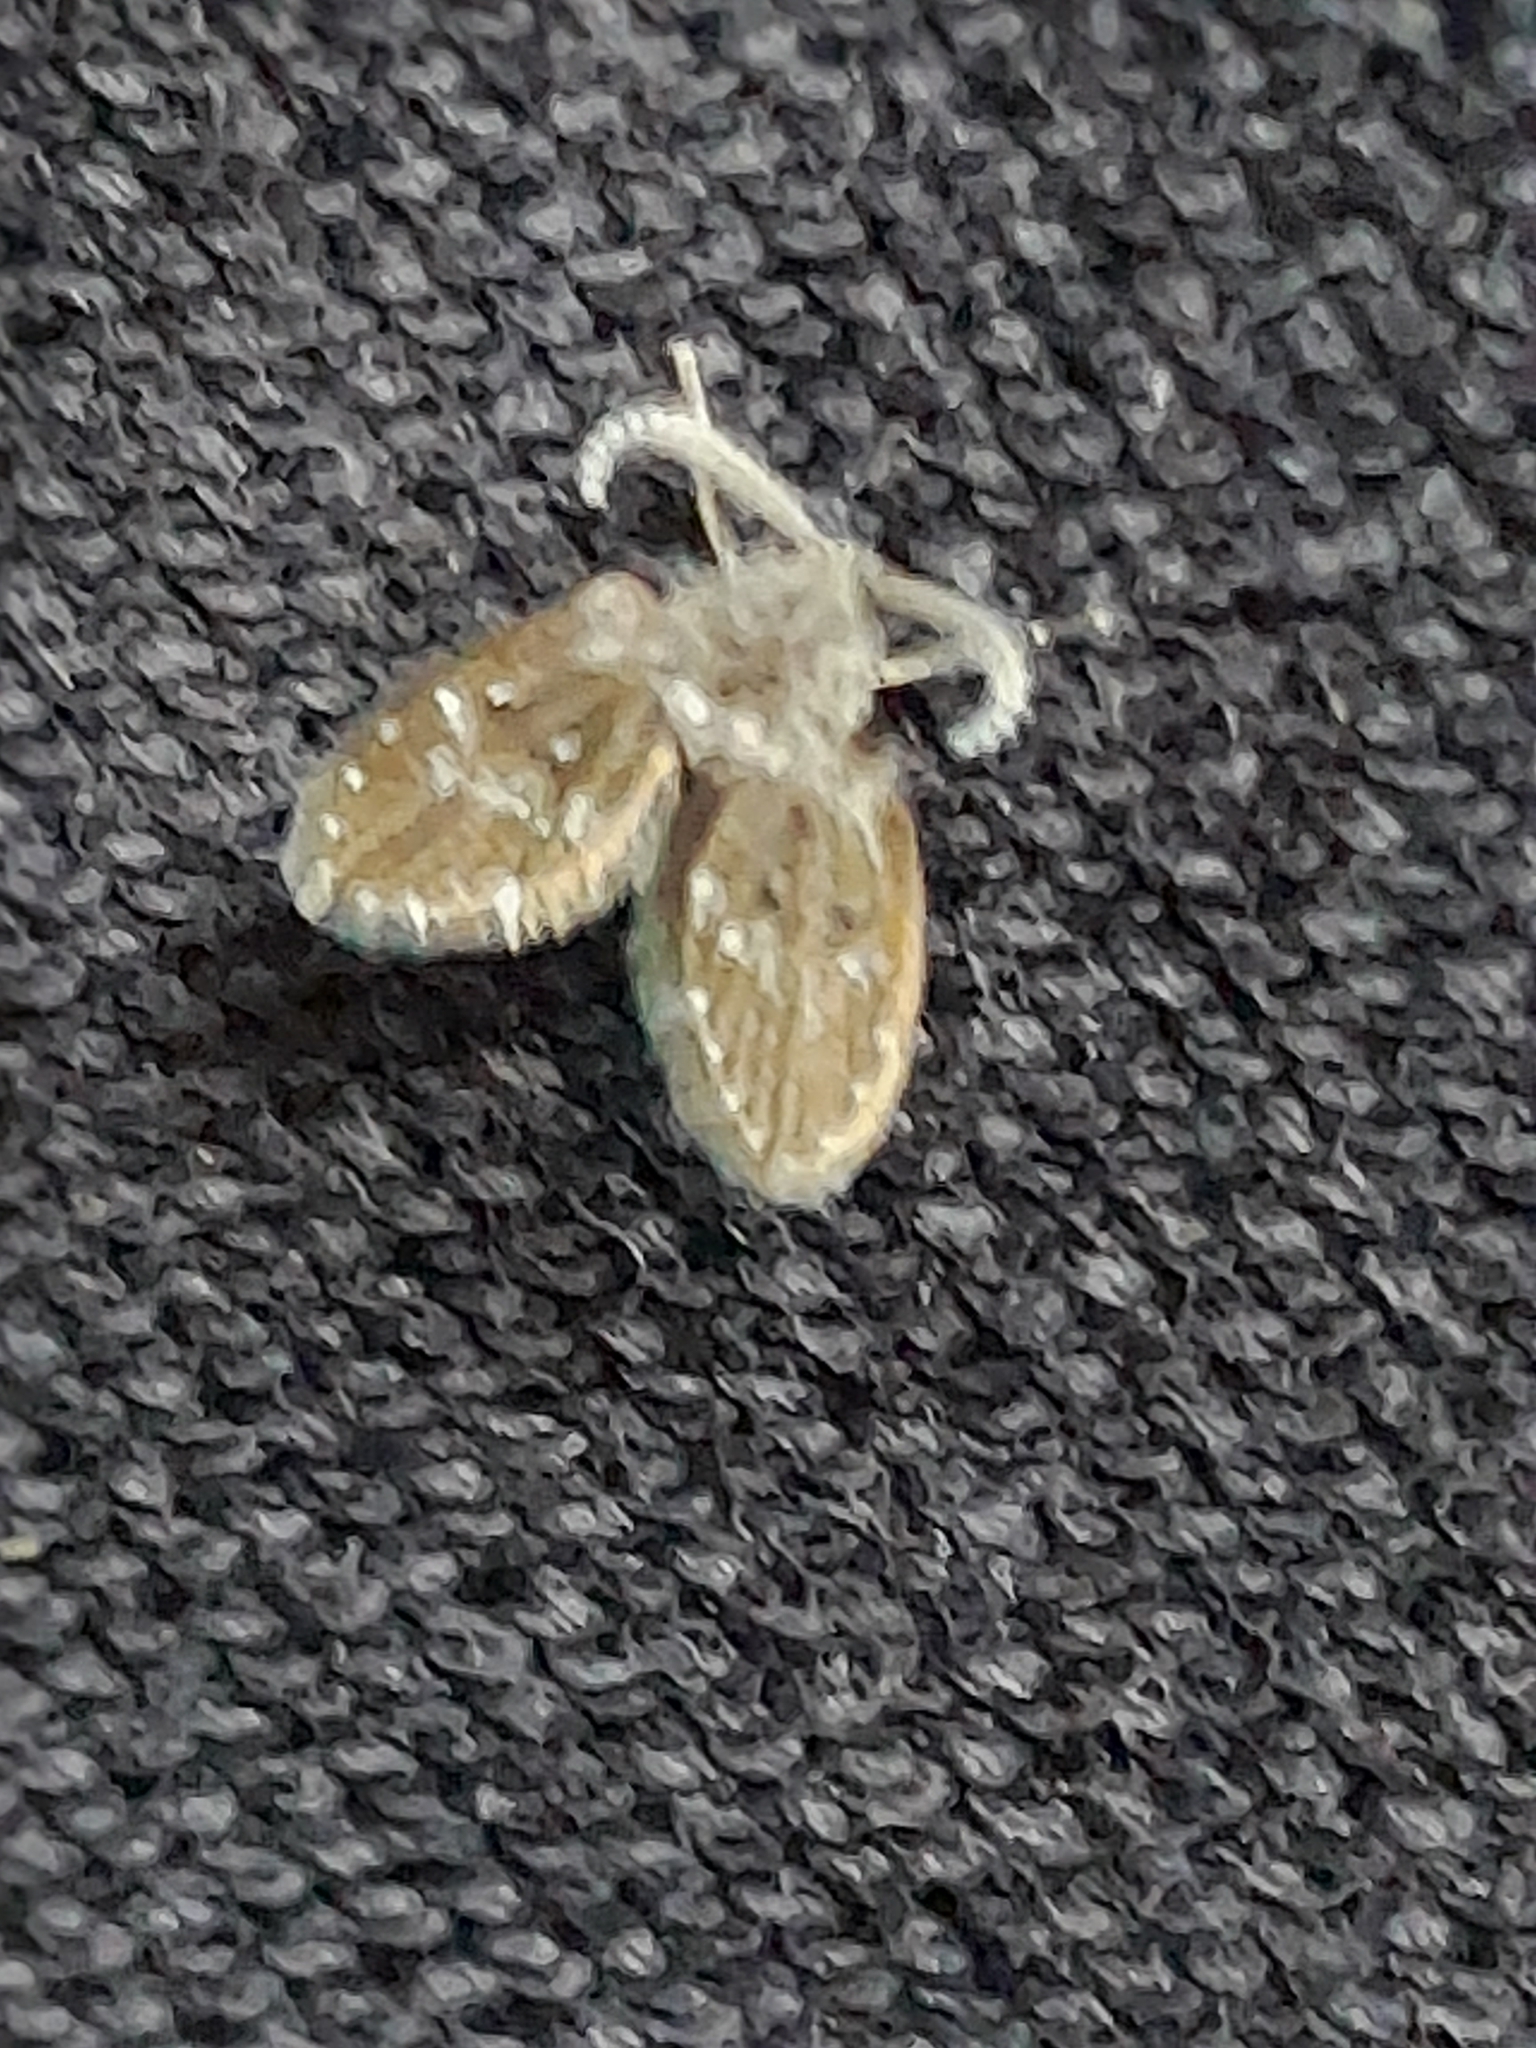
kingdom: Animalia
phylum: Arthropoda
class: Insecta
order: Diptera
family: Psychodidae
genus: Clogmia
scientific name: Clogmia albipunctatus
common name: White-spotted moth fly
